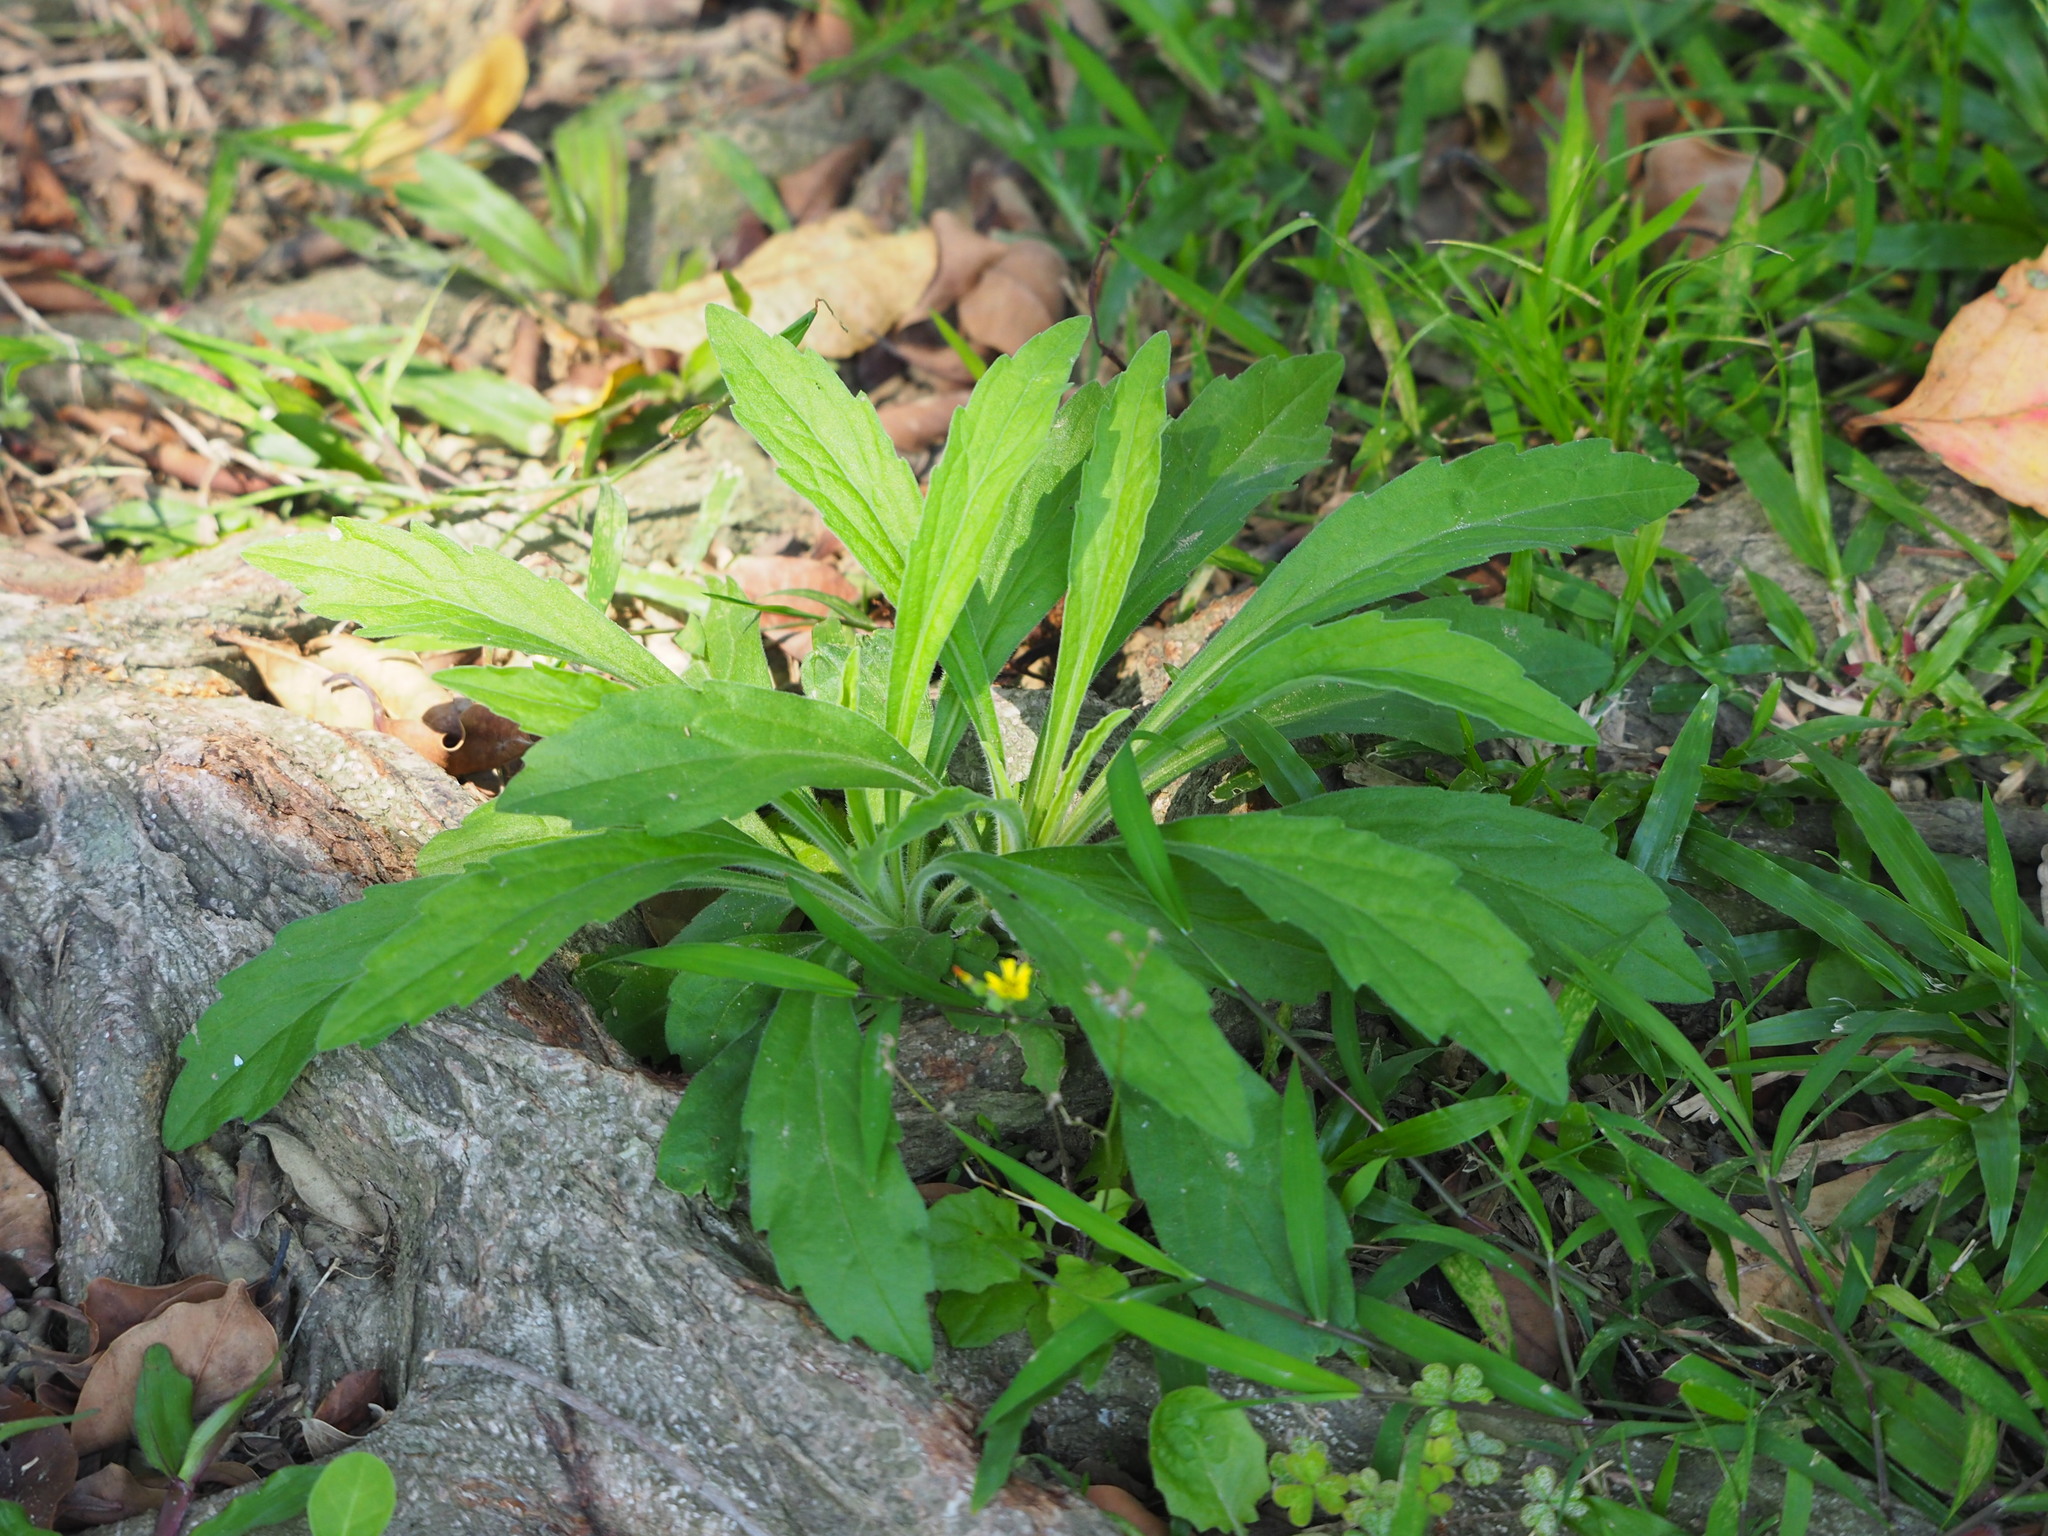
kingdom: Plantae
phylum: Tracheophyta
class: Magnoliopsida
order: Asterales
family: Asteraceae
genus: Erigeron
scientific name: Erigeron sumatrensis
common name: Daisy
